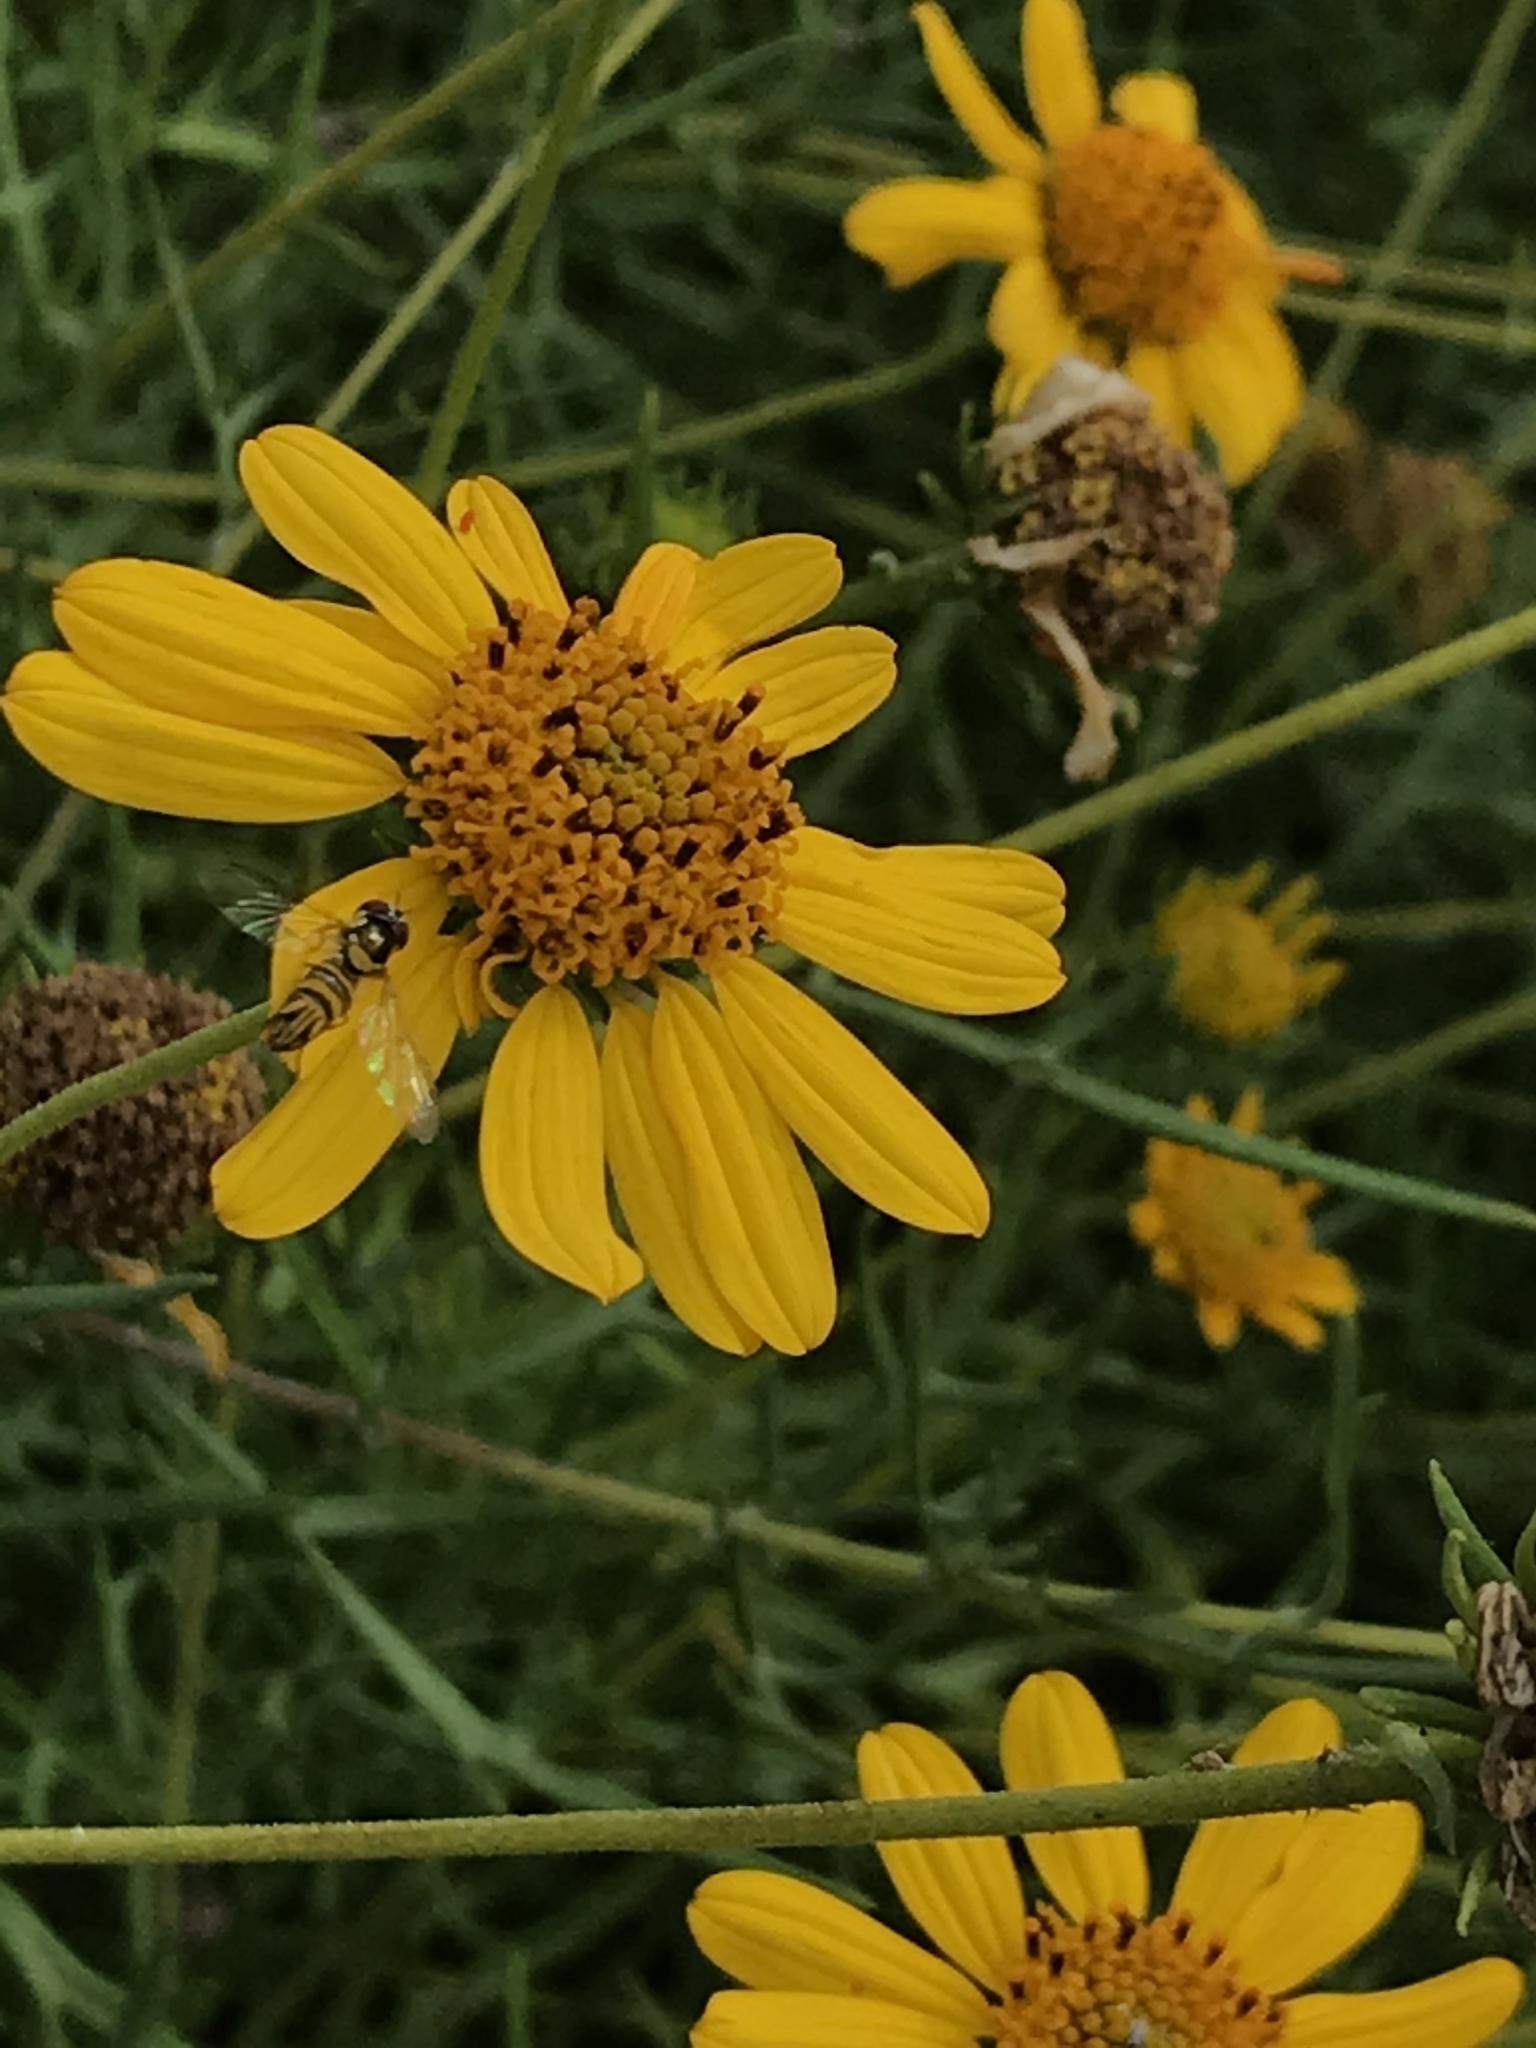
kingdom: Animalia
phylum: Arthropoda
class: Insecta
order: Diptera
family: Syrphidae
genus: Allograpta
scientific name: Allograpta obliqua
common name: Common oblique syrphid
